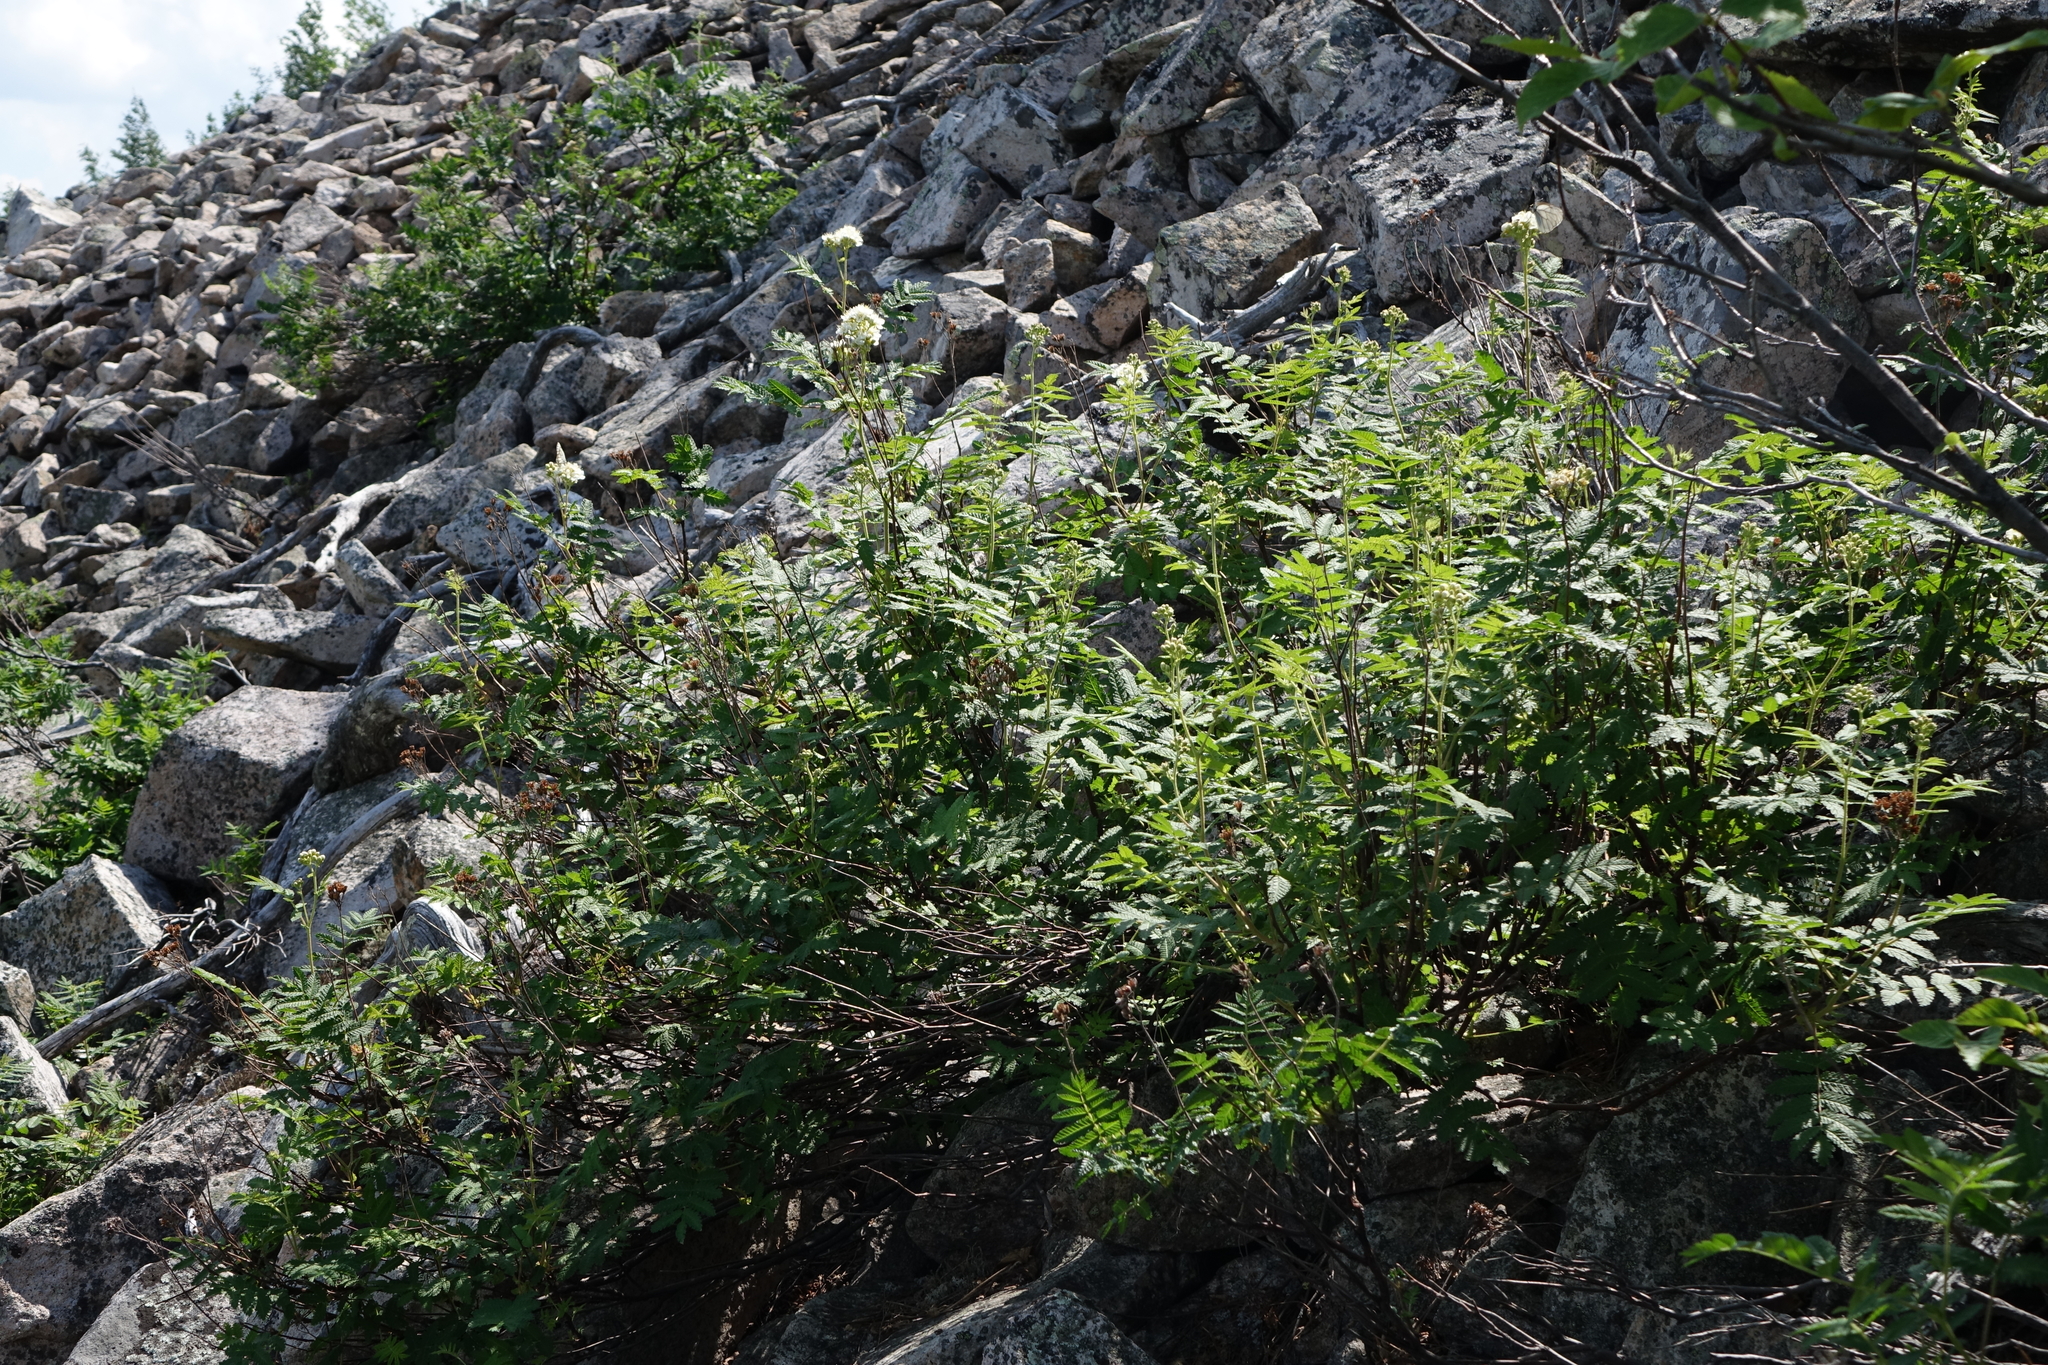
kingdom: Plantae
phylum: Tracheophyta
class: Magnoliopsida
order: Rosales
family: Rosaceae
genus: Sorbaria
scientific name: Sorbaria pallasii
